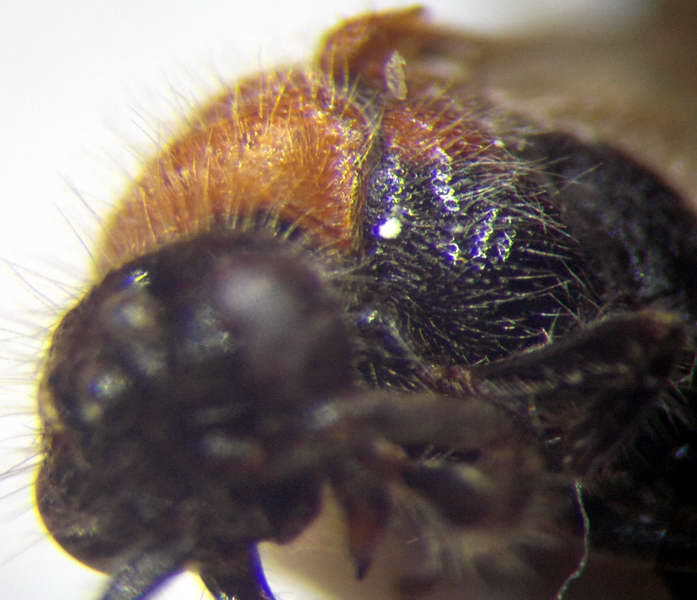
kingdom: Animalia
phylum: Arthropoda
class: Insecta
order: Hymenoptera
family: Mutillidae
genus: Physetopoda
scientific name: Physetopoda halensis
